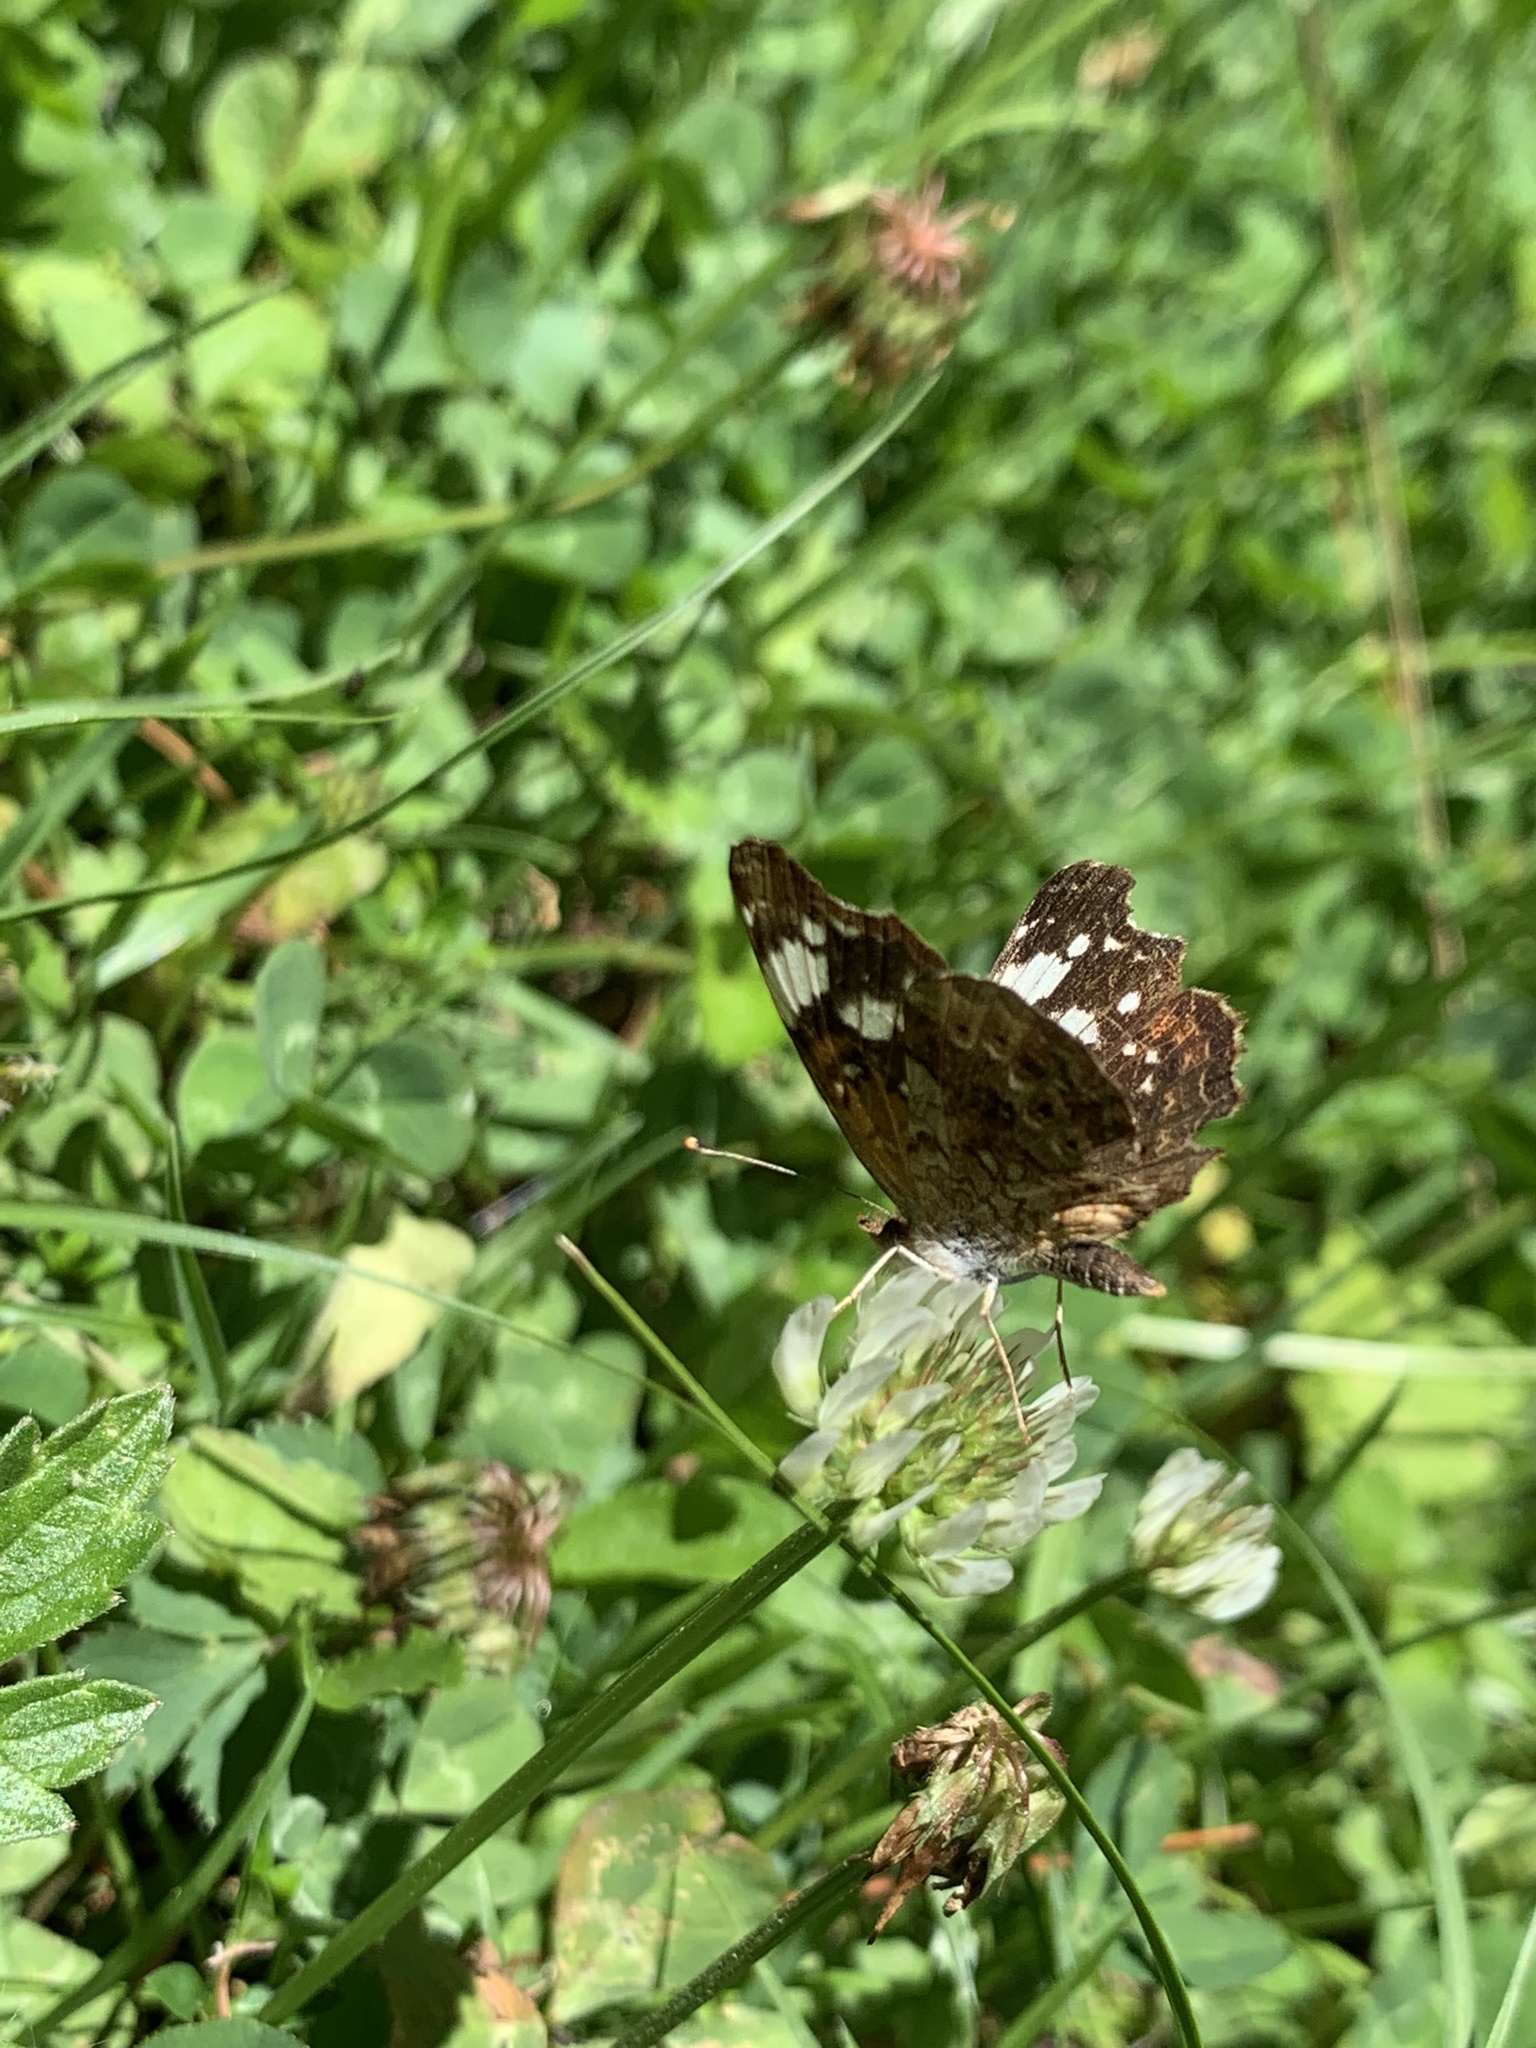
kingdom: Animalia
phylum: Arthropoda
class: Insecta
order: Lepidoptera
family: Nymphalidae
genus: Anthanassa
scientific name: Anthanassa sitalces
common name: Montane crescent
